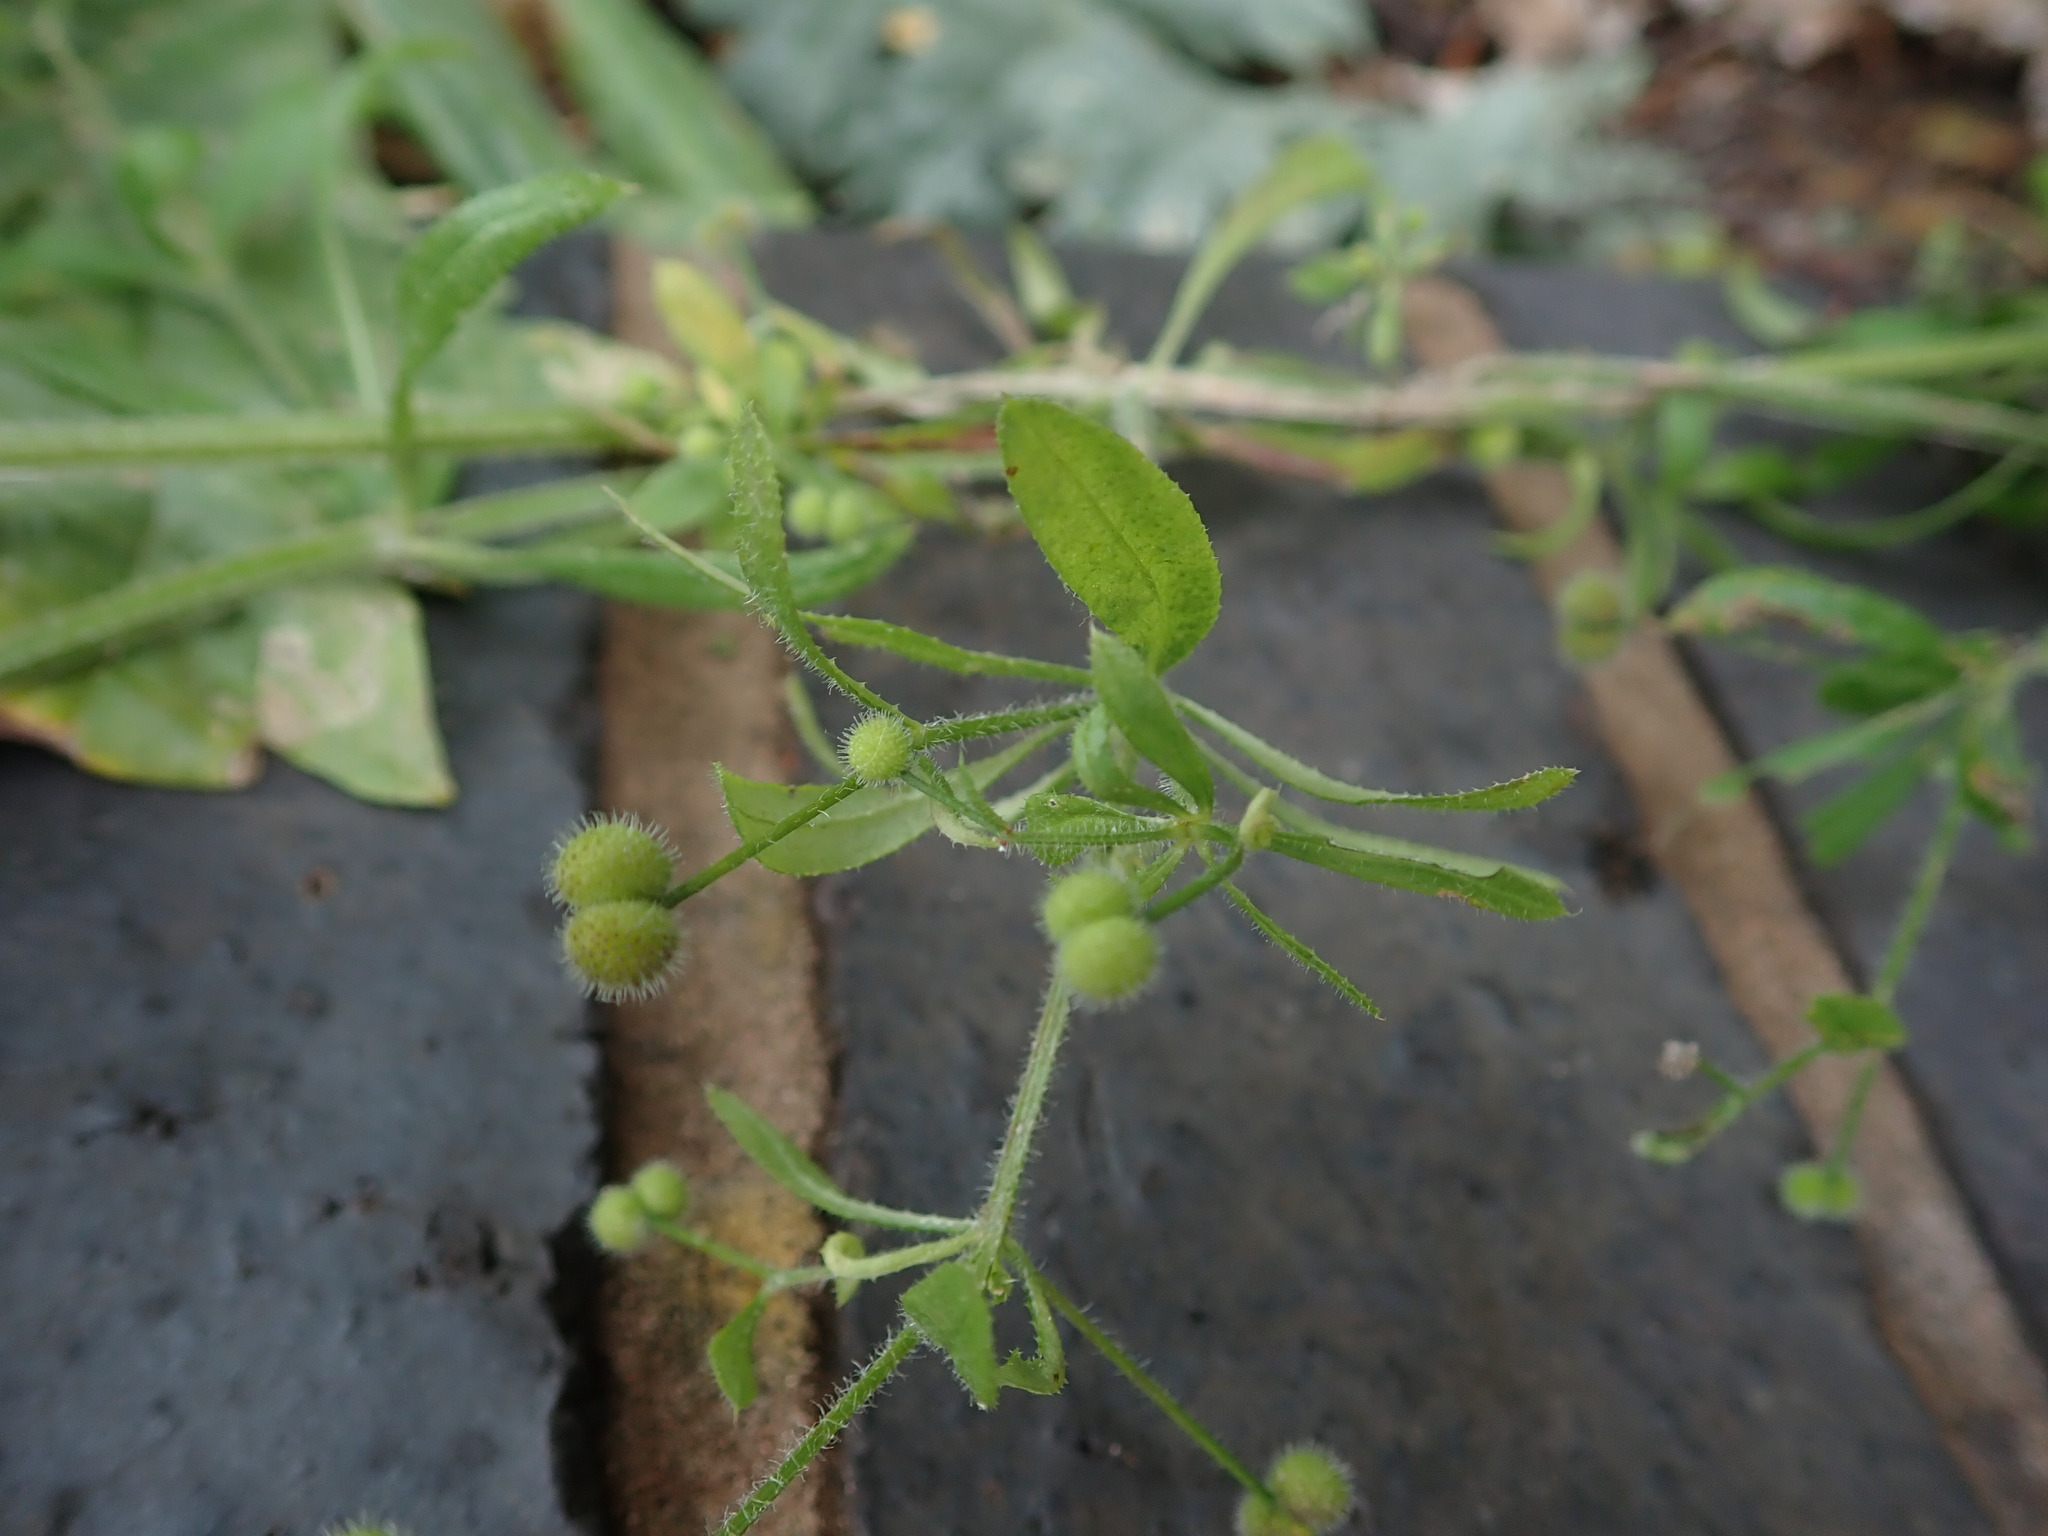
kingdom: Plantae
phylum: Tracheophyta
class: Magnoliopsida
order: Gentianales
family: Rubiaceae
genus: Galium
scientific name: Galium aparine
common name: Cleavers
